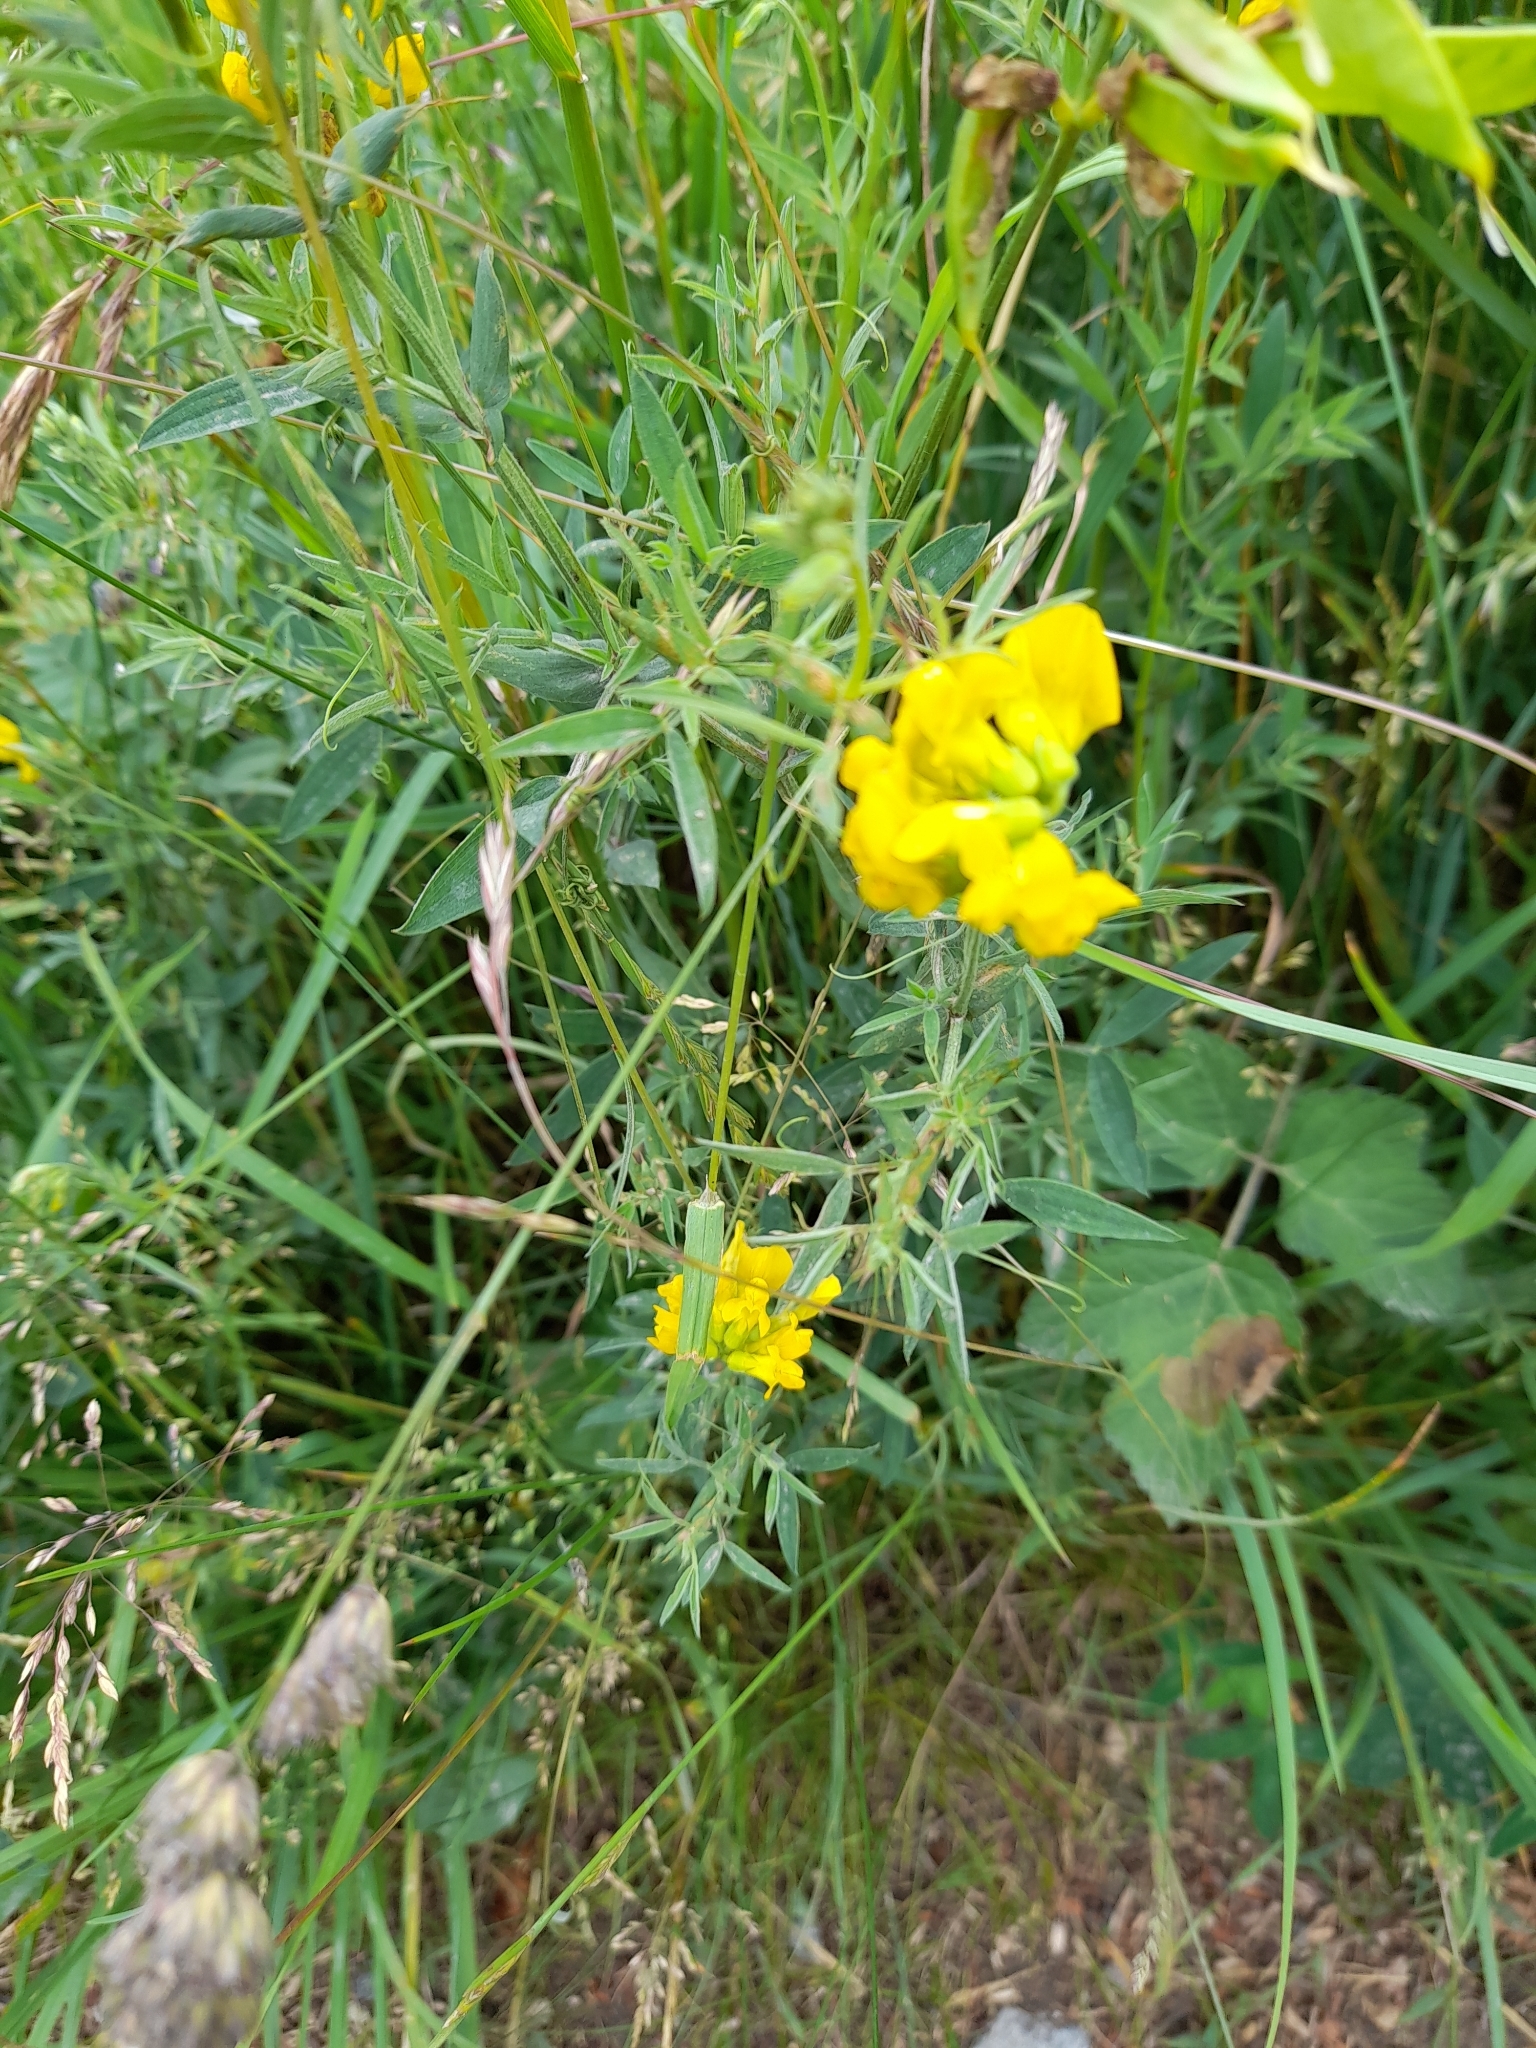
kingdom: Plantae
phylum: Tracheophyta
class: Magnoliopsida
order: Fabales
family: Fabaceae
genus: Lathyrus
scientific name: Lathyrus pratensis
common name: Meadow vetchling
